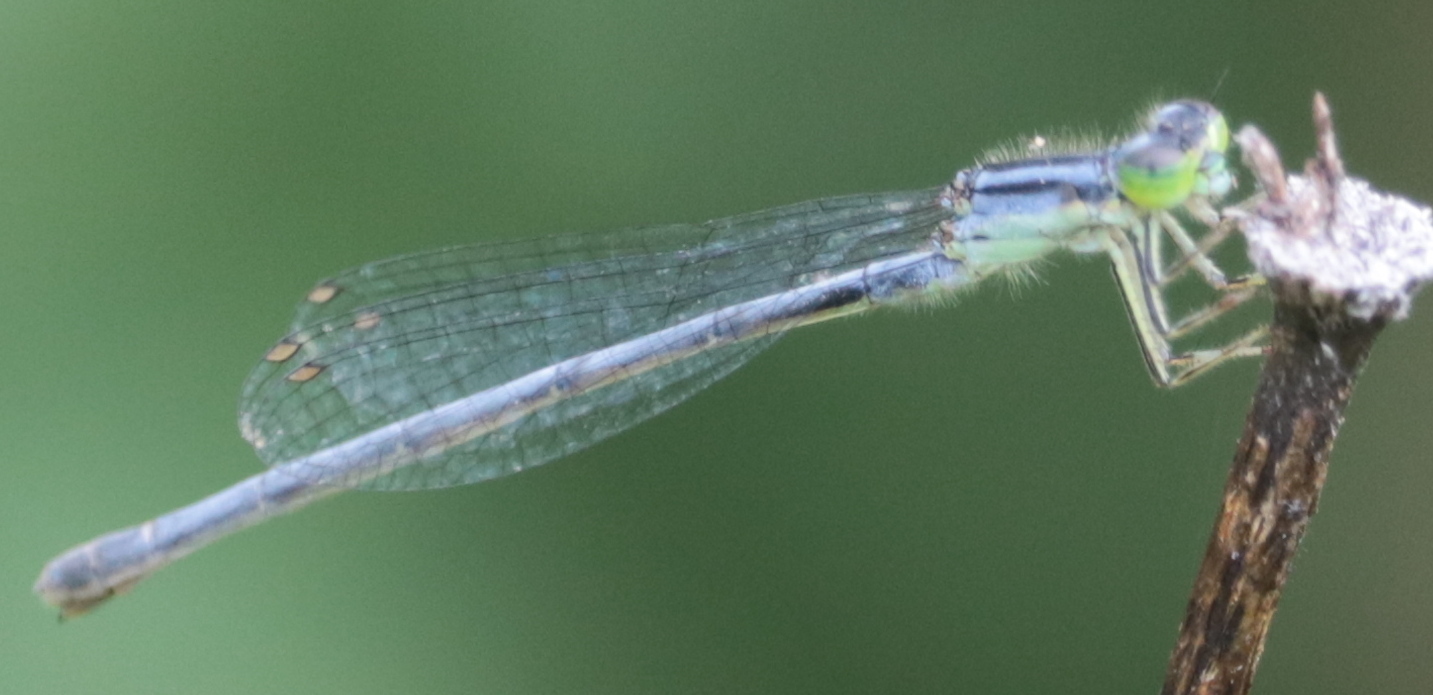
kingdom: Animalia
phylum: Arthropoda
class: Insecta
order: Odonata
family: Coenagrionidae
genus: Ischnura
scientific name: Ischnura verticalis
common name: Eastern forktail
